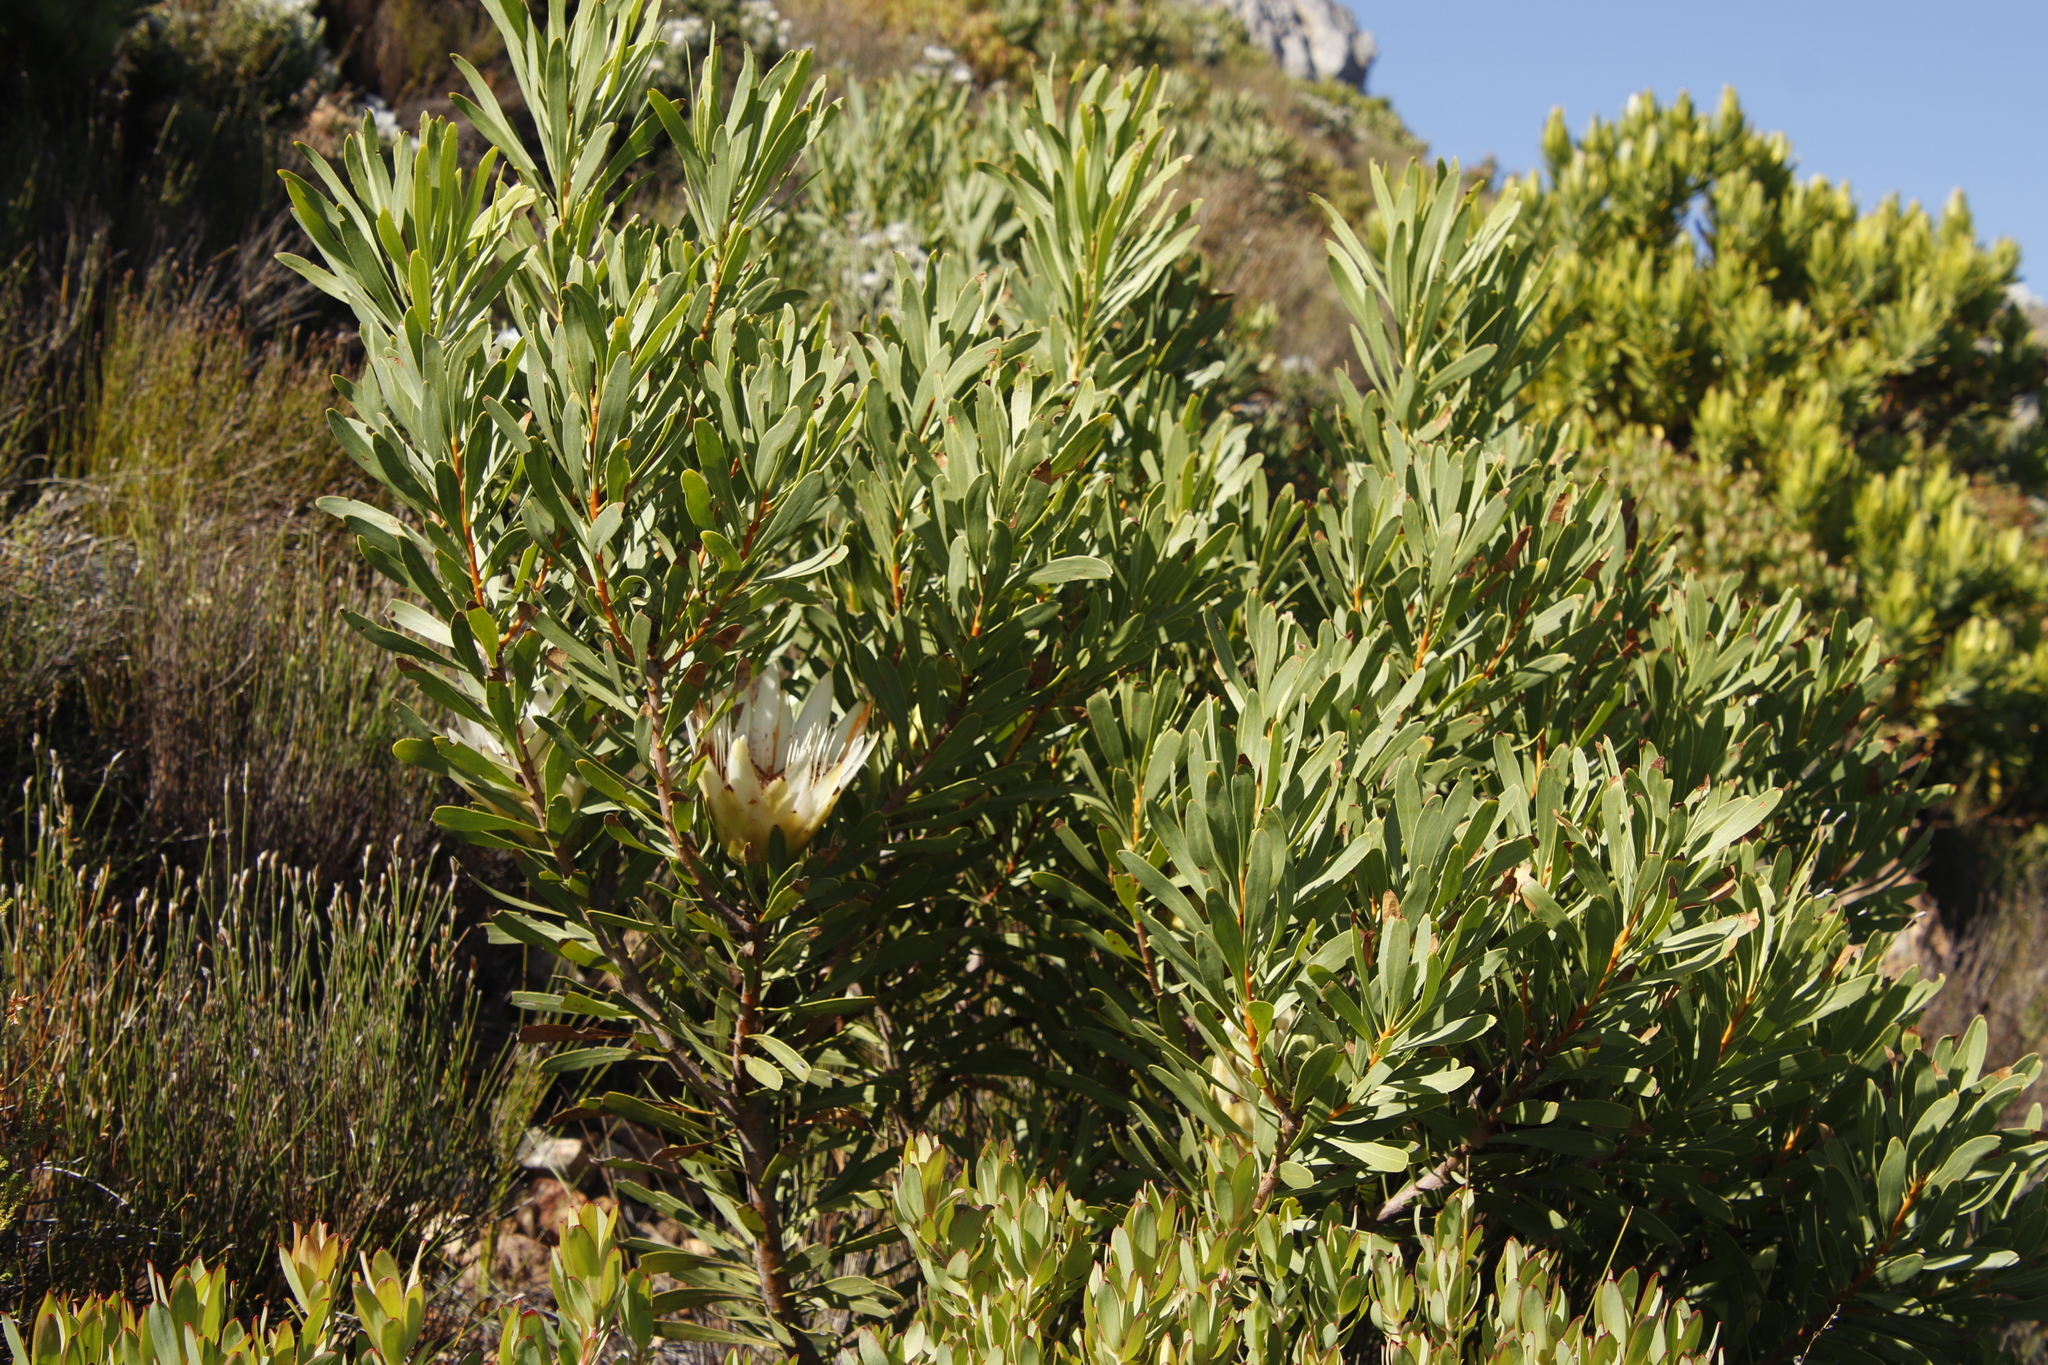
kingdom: Plantae
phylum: Tracheophyta
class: Magnoliopsida
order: Proteales
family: Proteaceae
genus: Protea
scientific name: Protea repens
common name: Sugarbush
